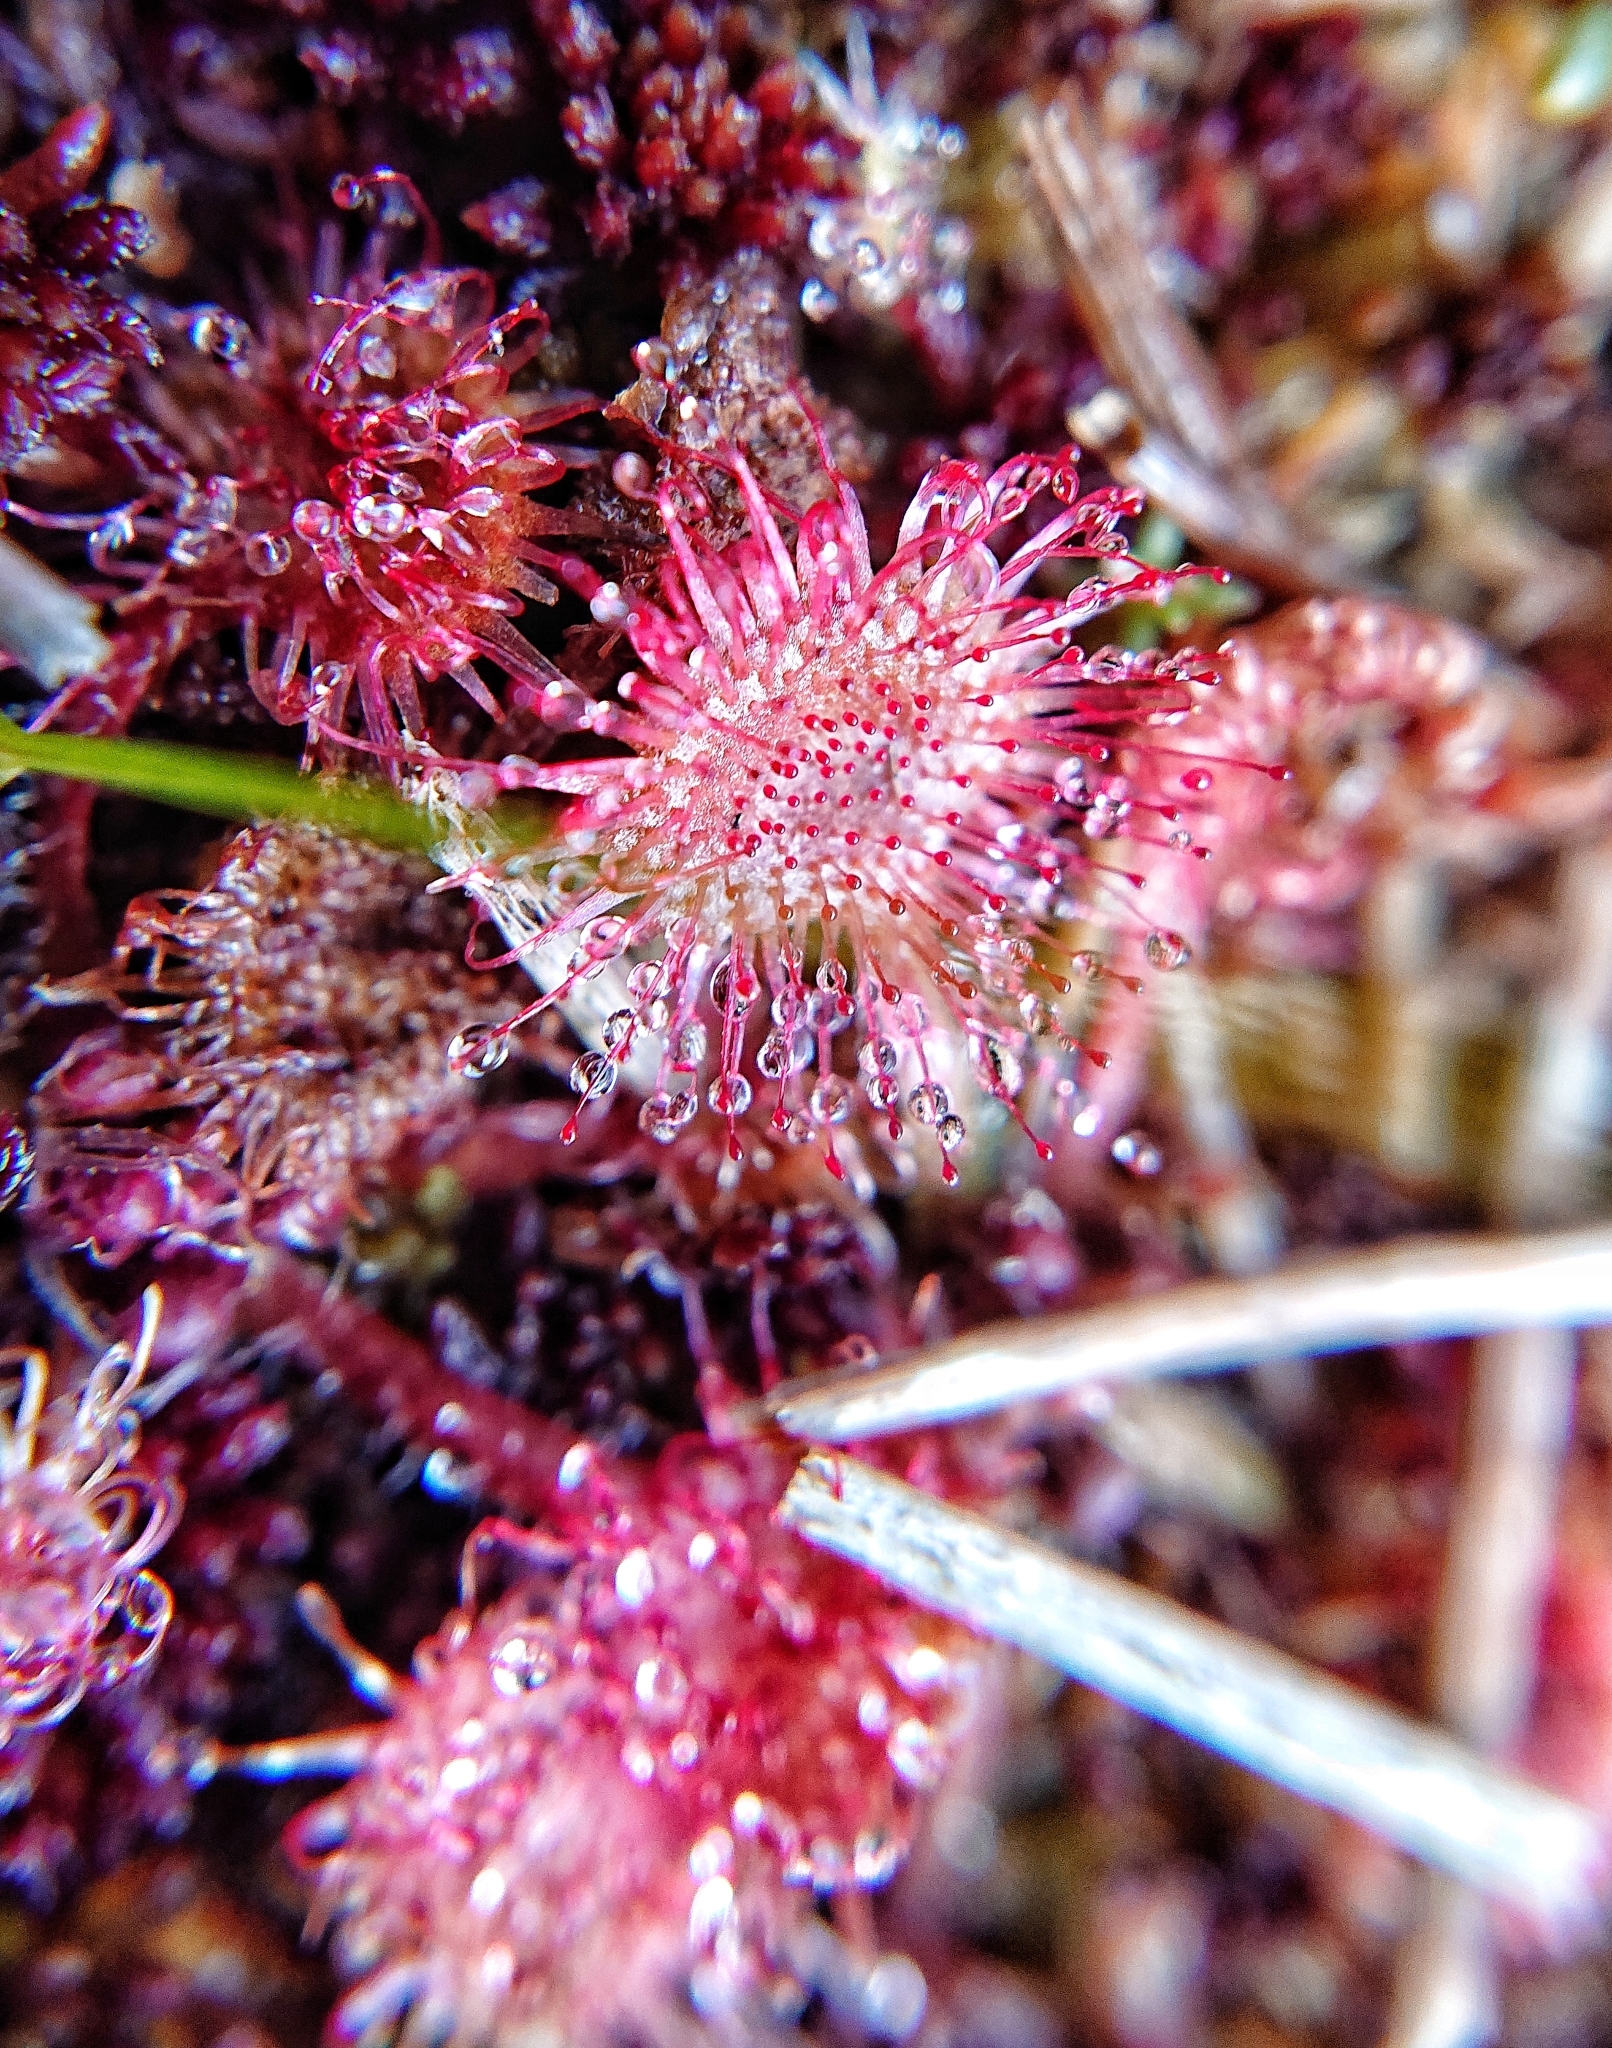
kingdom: Plantae
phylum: Tracheophyta
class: Magnoliopsida
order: Caryophyllales
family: Droseraceae
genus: Drosera
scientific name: Drosera rotundifolia
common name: Round-leaved sundew
